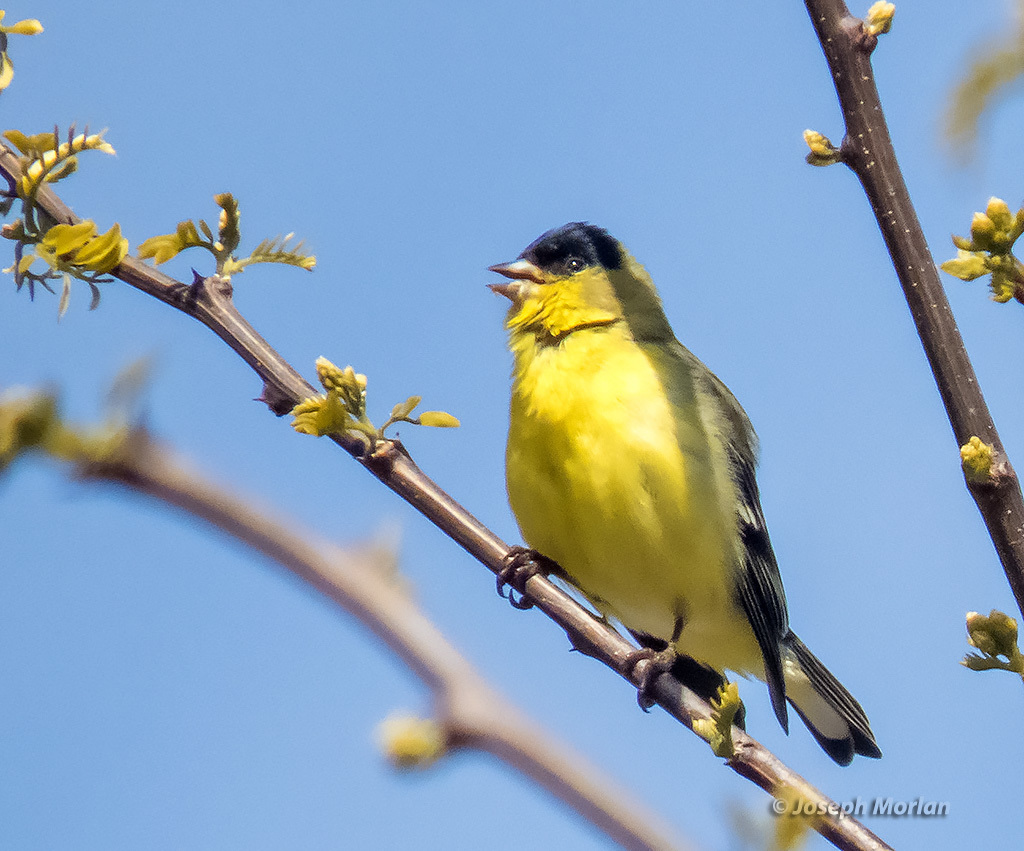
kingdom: Animalia
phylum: Chordata
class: Aves
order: Passeriformes
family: Fringillidae
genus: Spinus
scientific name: Spinus psaltria
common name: Lesser goldfinch
